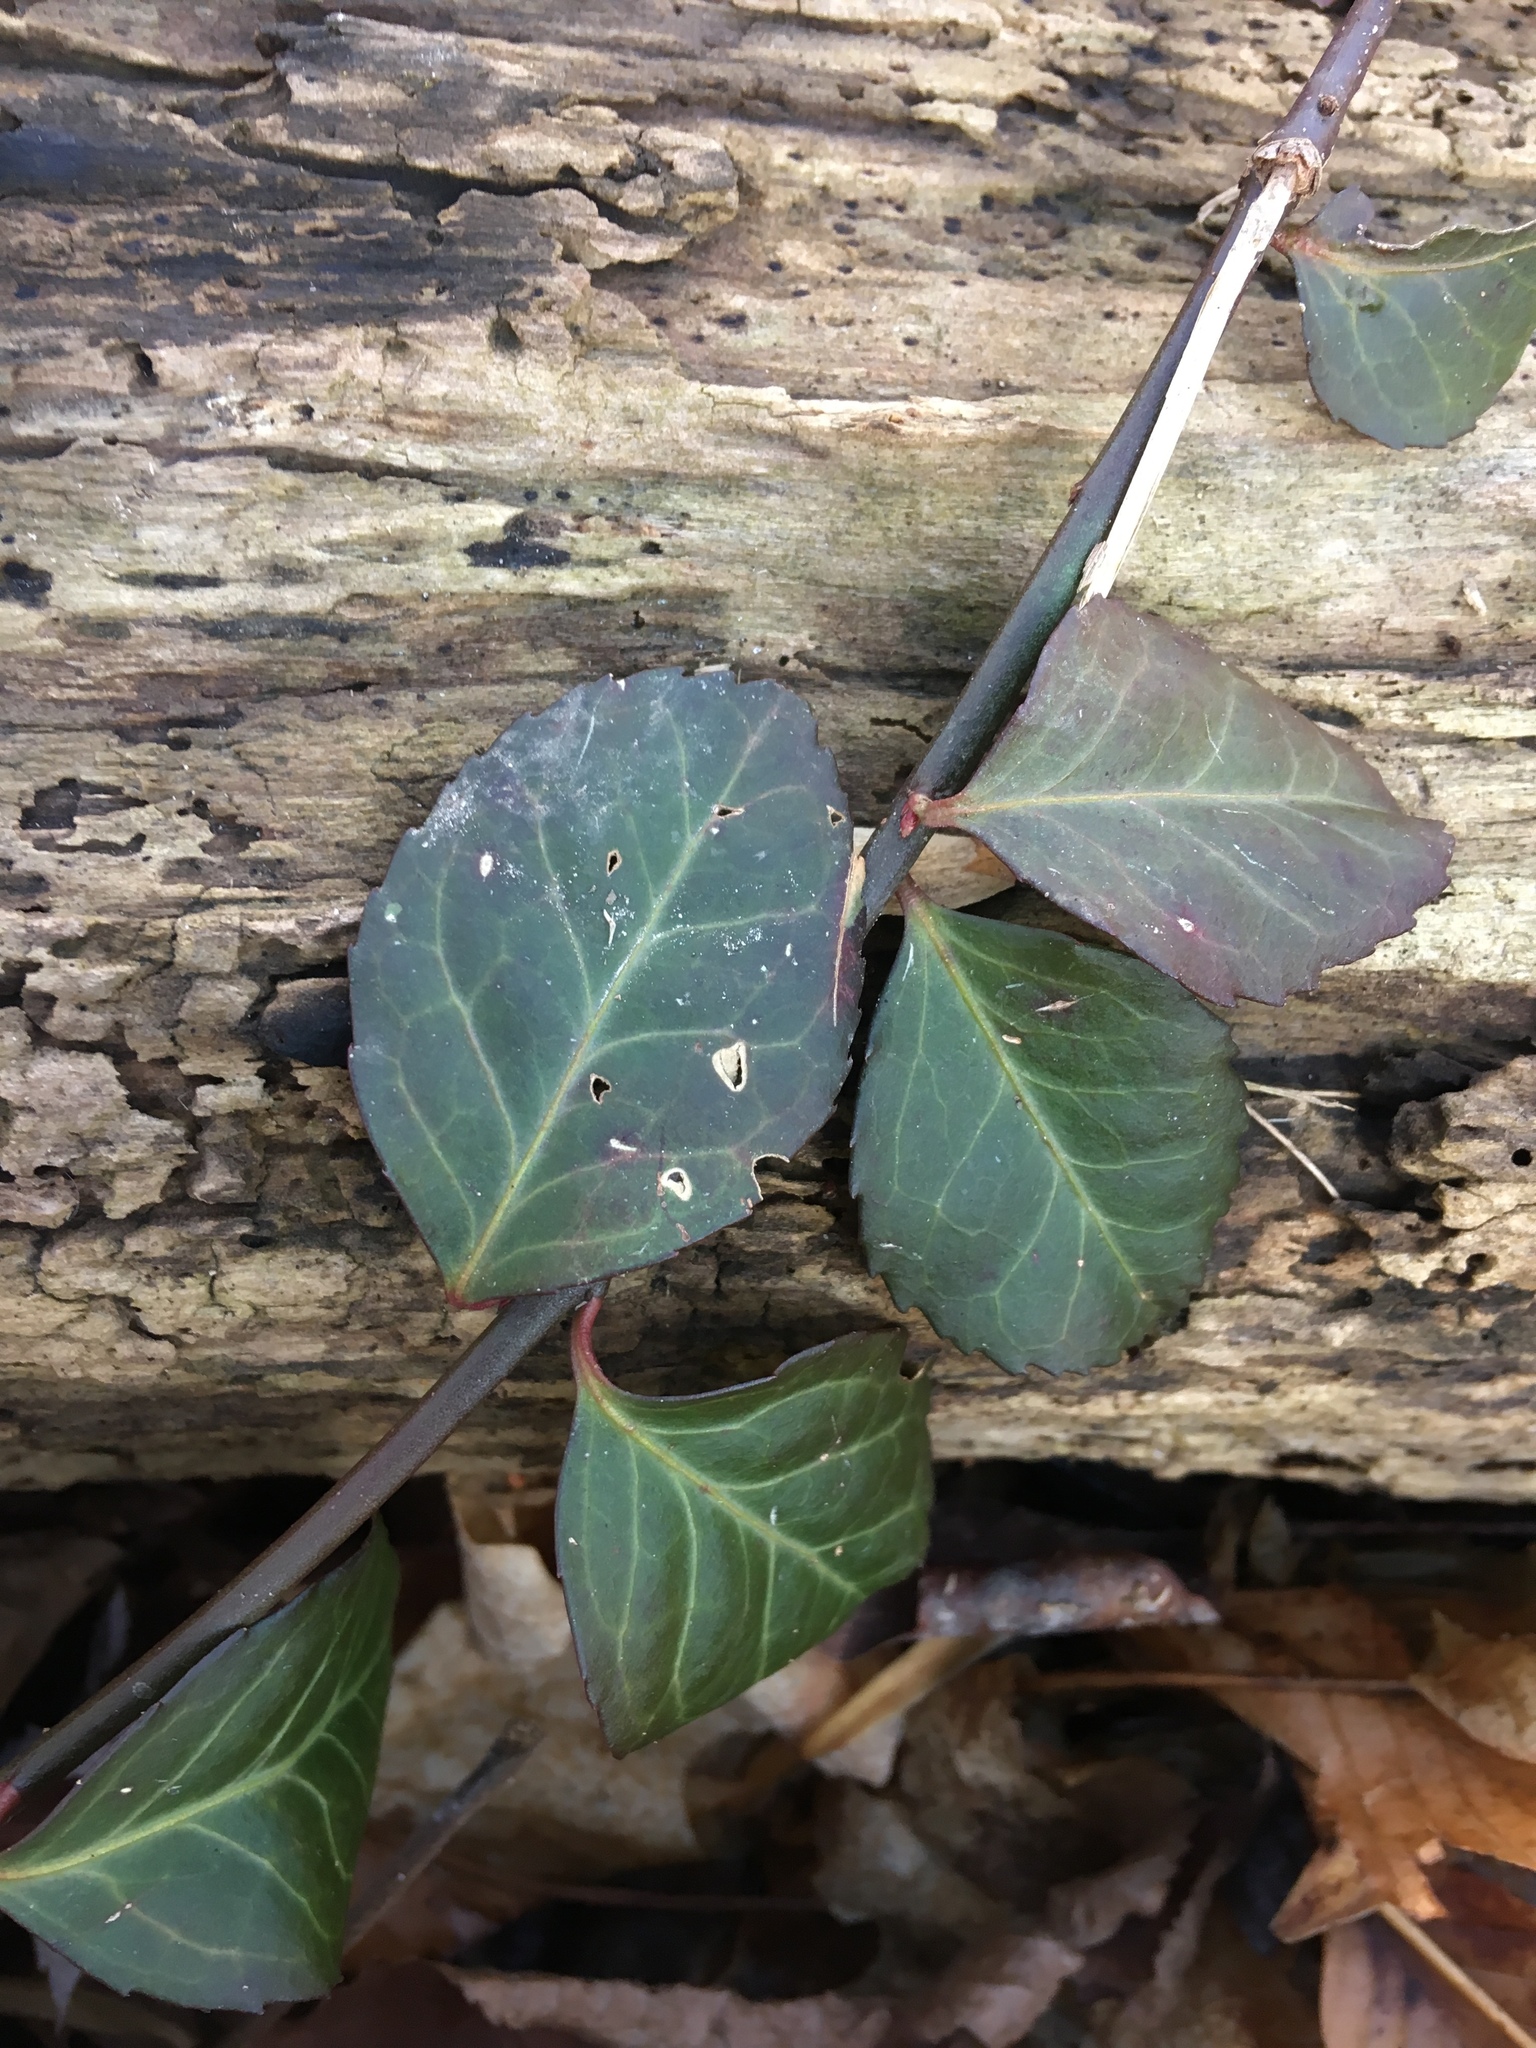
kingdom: Plantae
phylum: Tracheophyta
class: Magnoliopsida
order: Celastrales
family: Celastraceae
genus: Euonymus
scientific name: Euonymus fortunei
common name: Climbing euonymus
